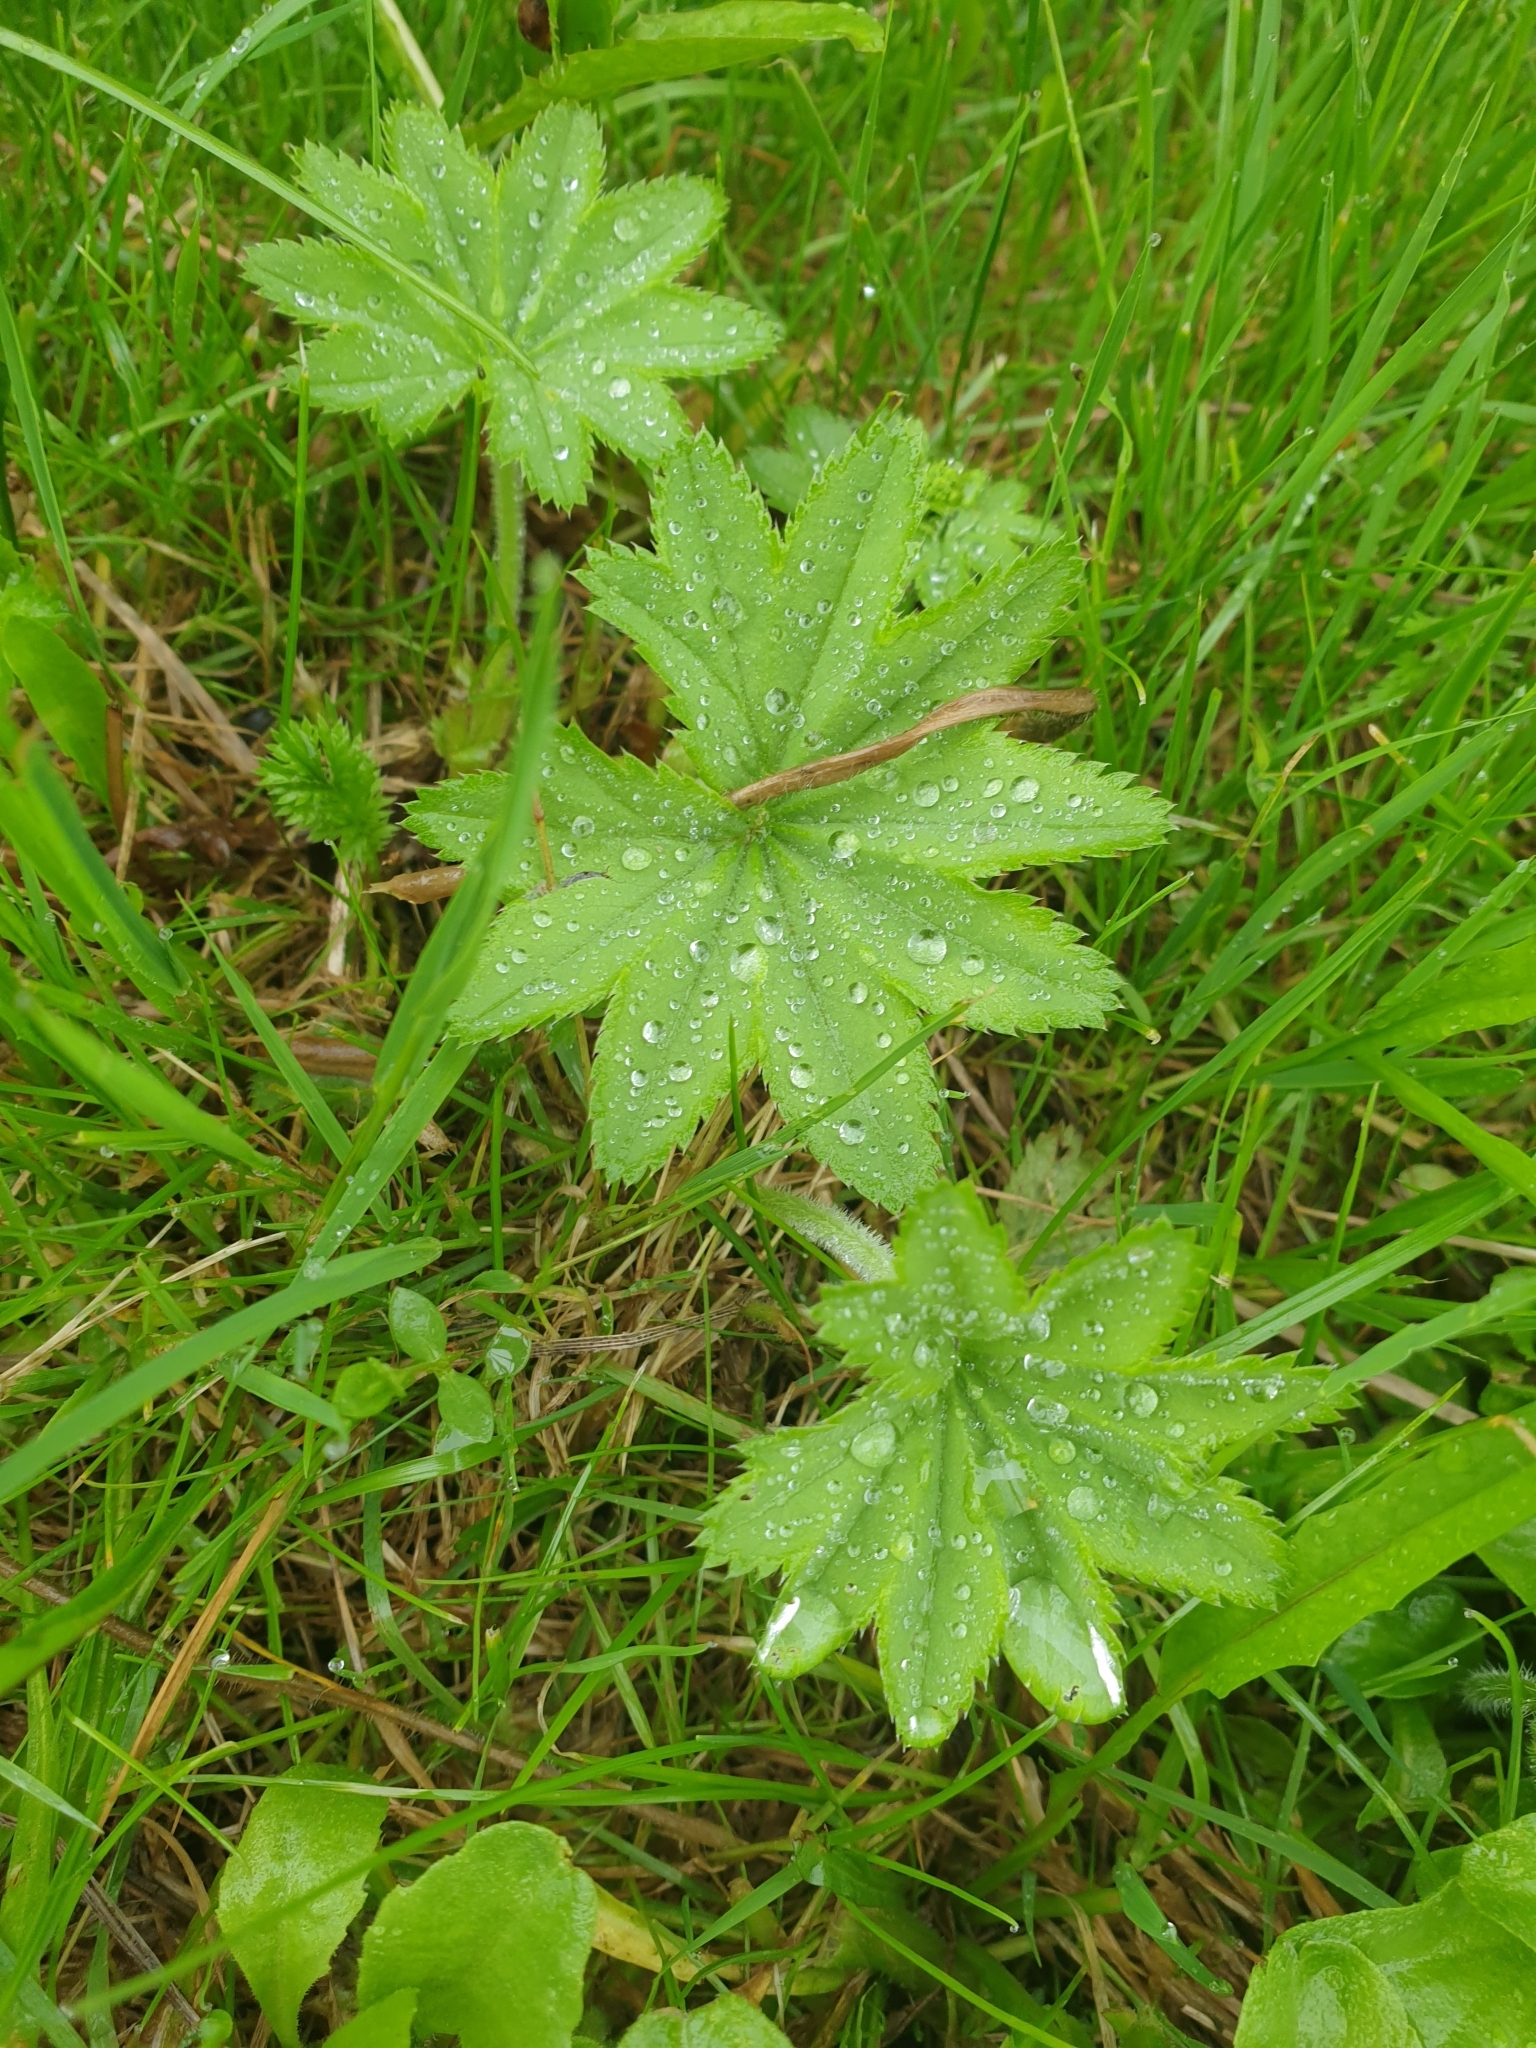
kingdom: Plantae
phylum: Tracheophyta
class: Magnoliopsida
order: Rosales
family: Rosaceae
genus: Alchemilla
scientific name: Alchemilla vulgaris
